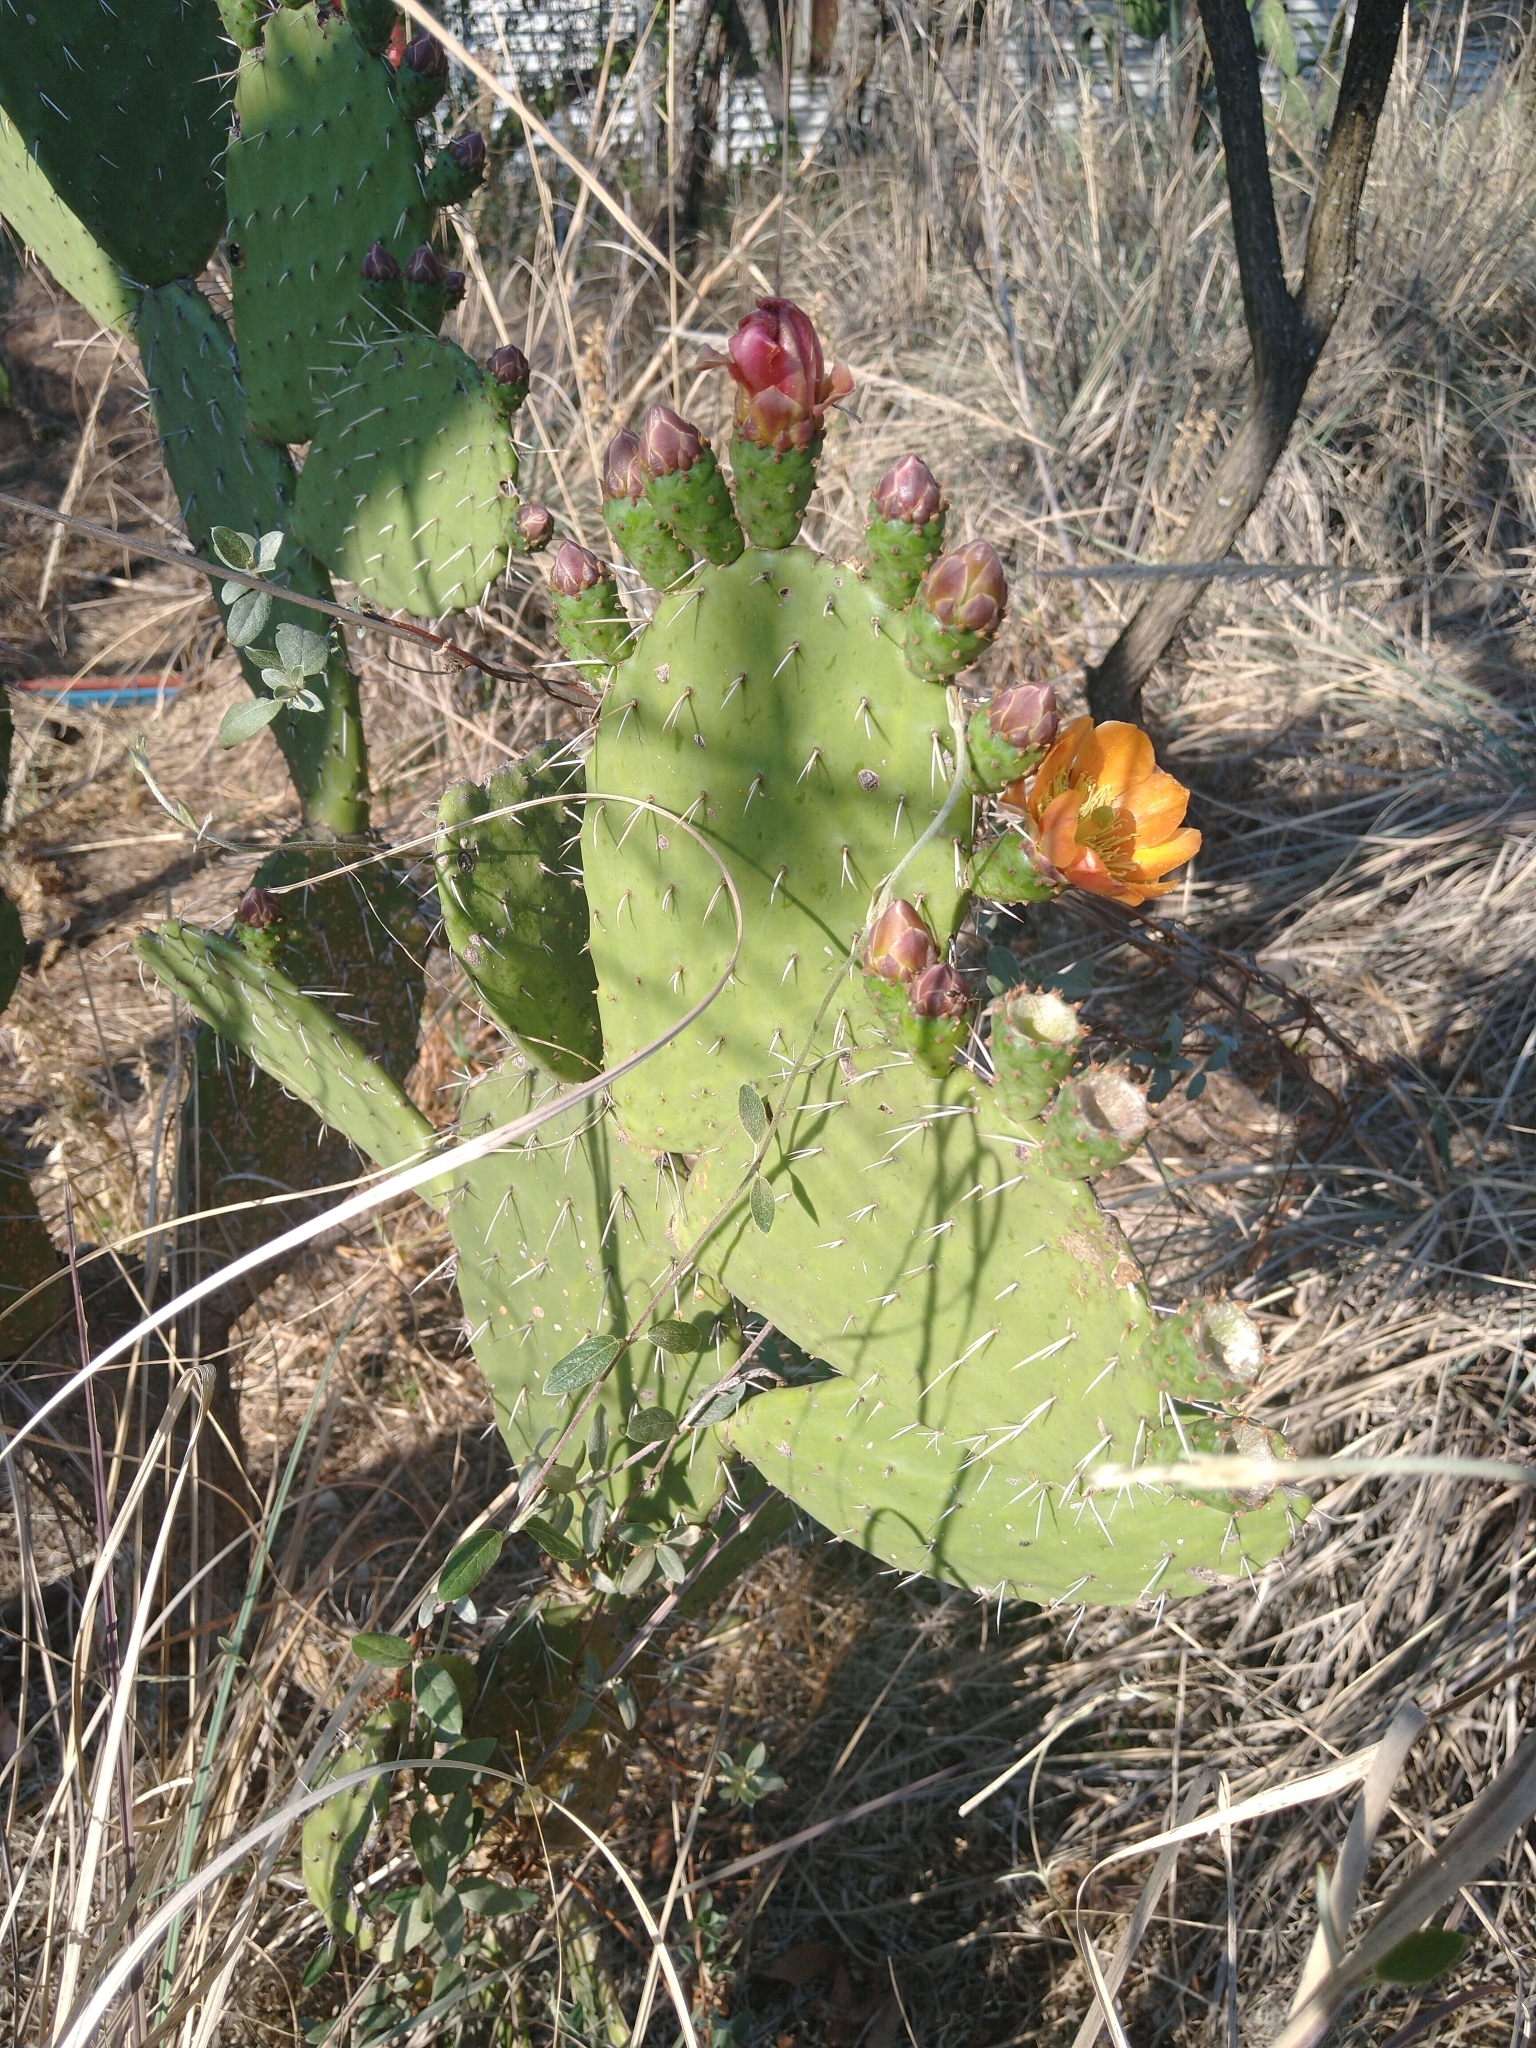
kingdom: Plantae
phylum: Tracheophyta
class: Magnoliopsida
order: Caryophyllales
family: Cactaceae
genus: Opuntia
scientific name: Opuntia lasiacantha
